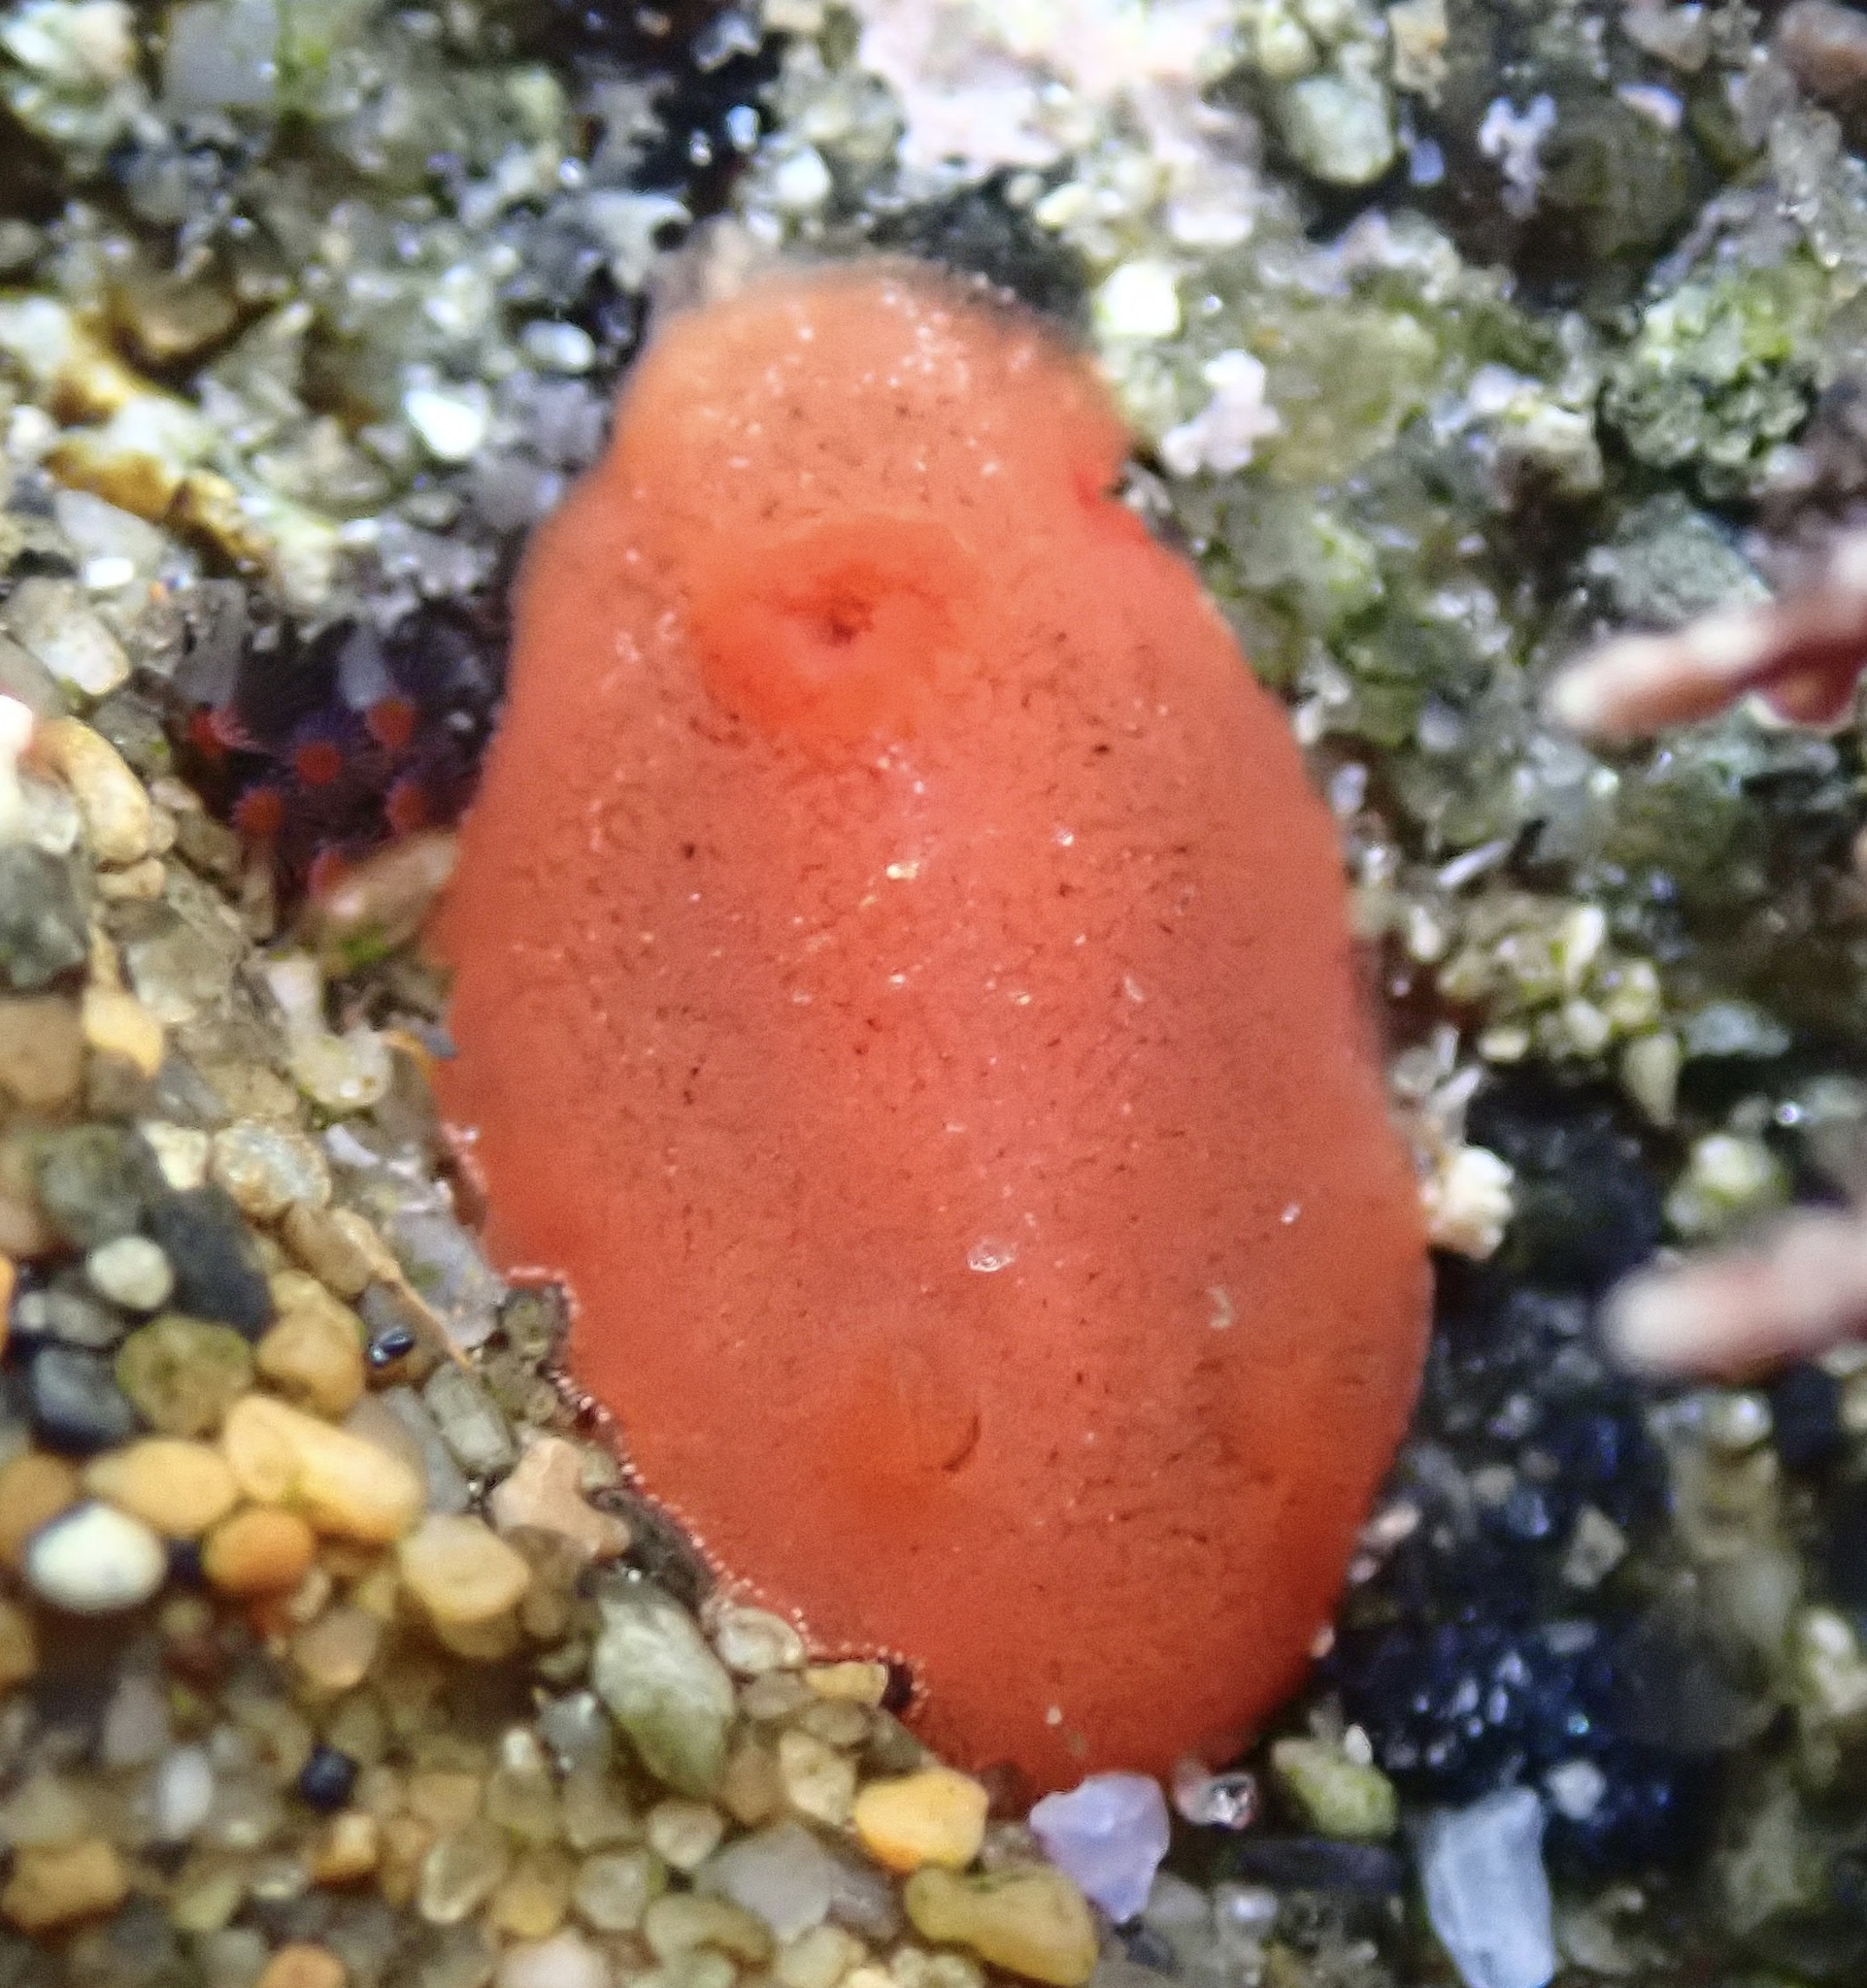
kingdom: Animalia
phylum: Mollusca
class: Gastropoda
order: Nudibranchia
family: Discodorididae
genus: Rostanga
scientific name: Rostanga pulchra
